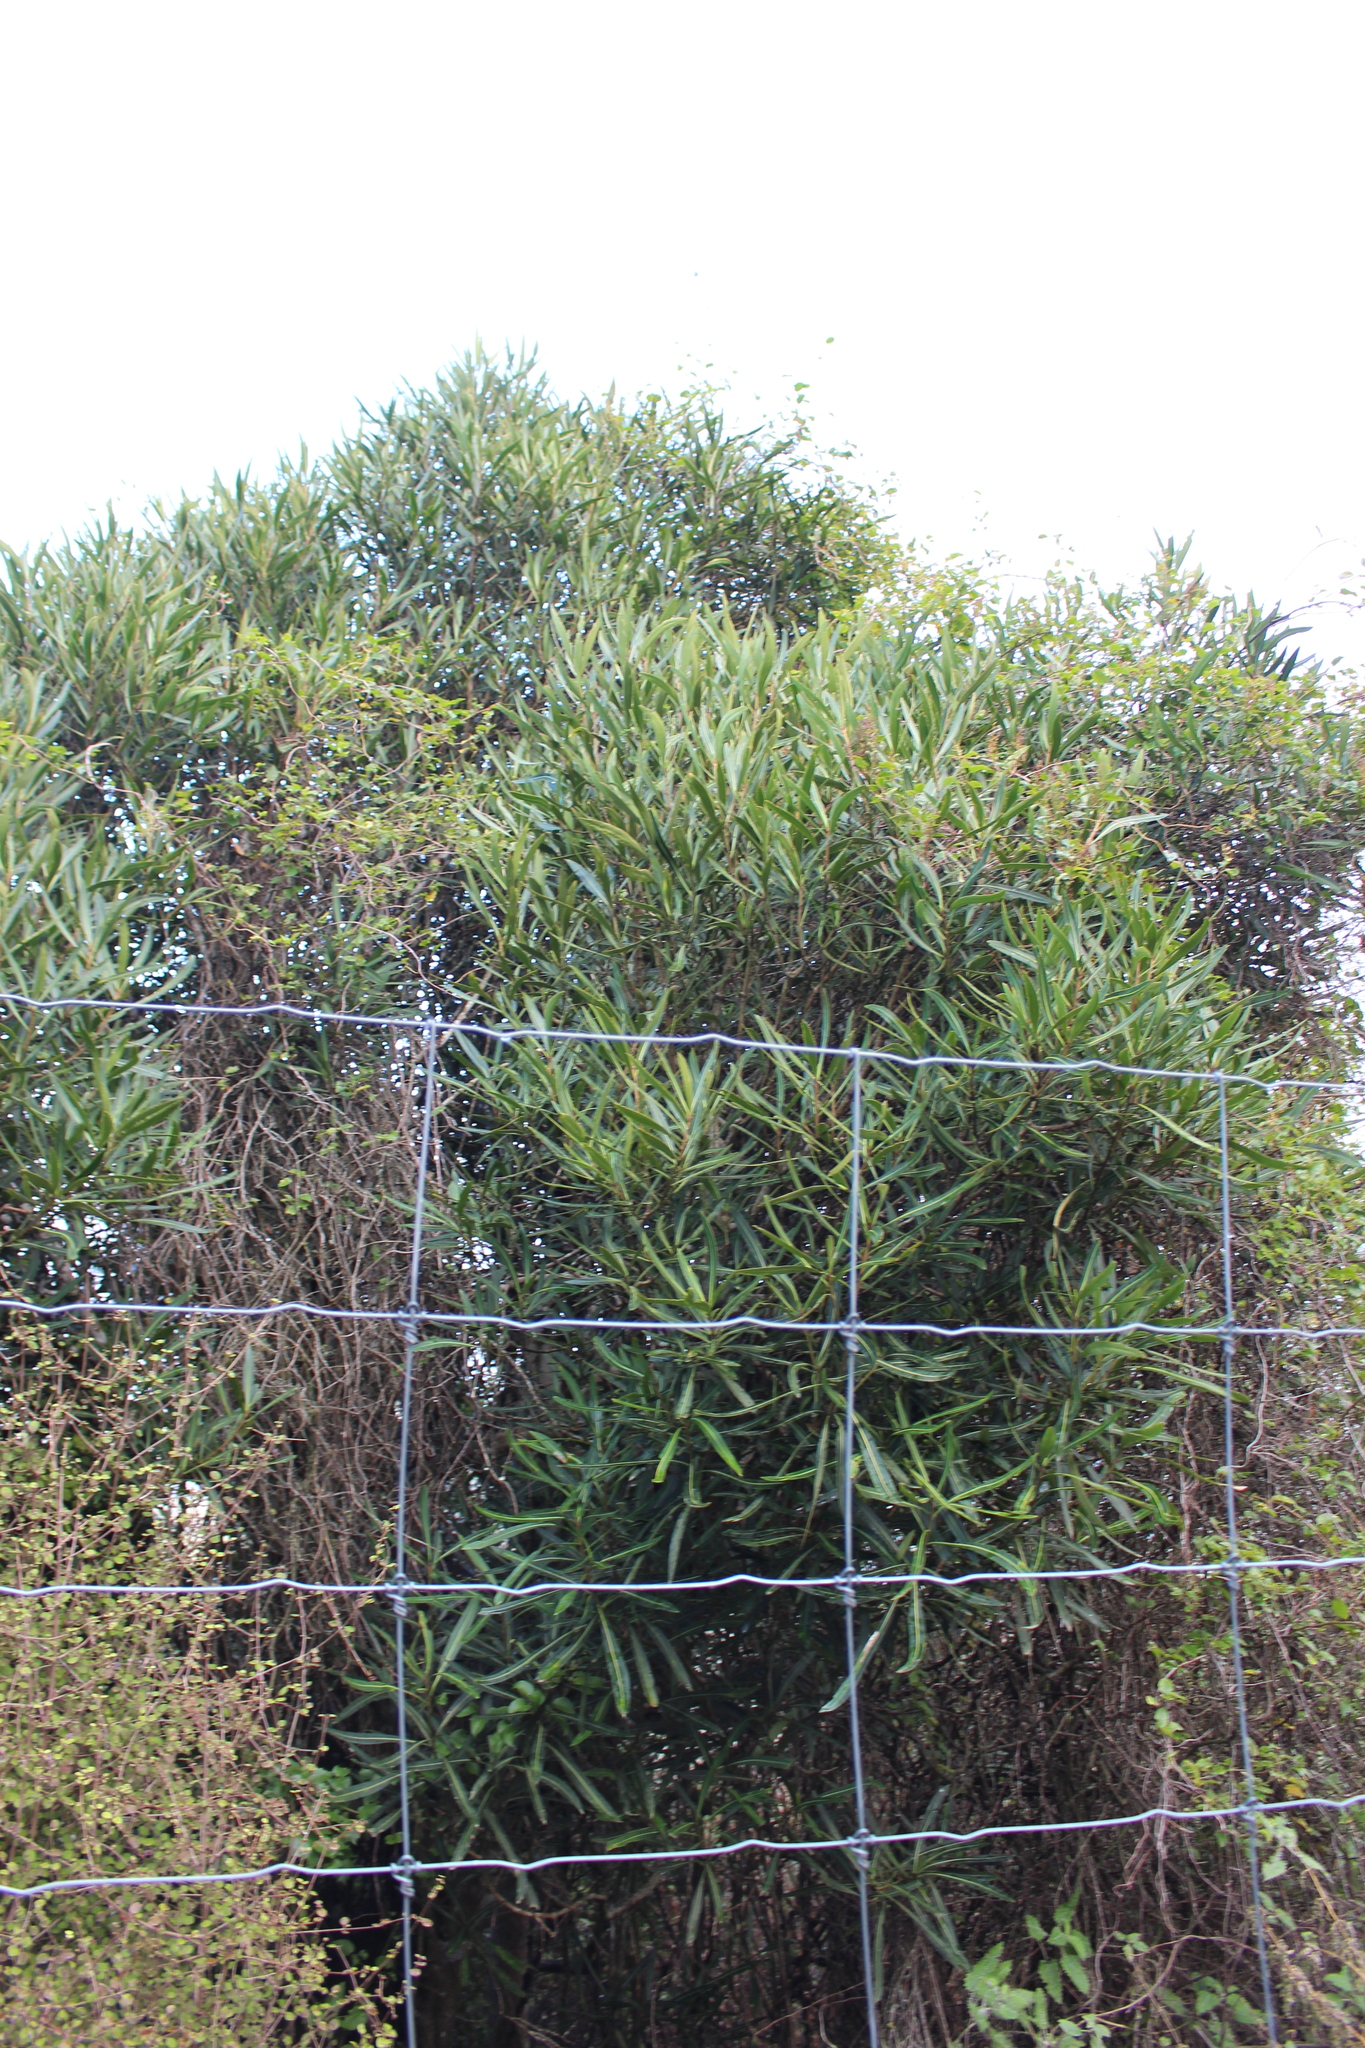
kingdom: Plantae
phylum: Tracheophyta
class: Magnoliopsida
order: Apiales
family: Araliaceae
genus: Pseudopanax
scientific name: Pseudopanax crassifolius
